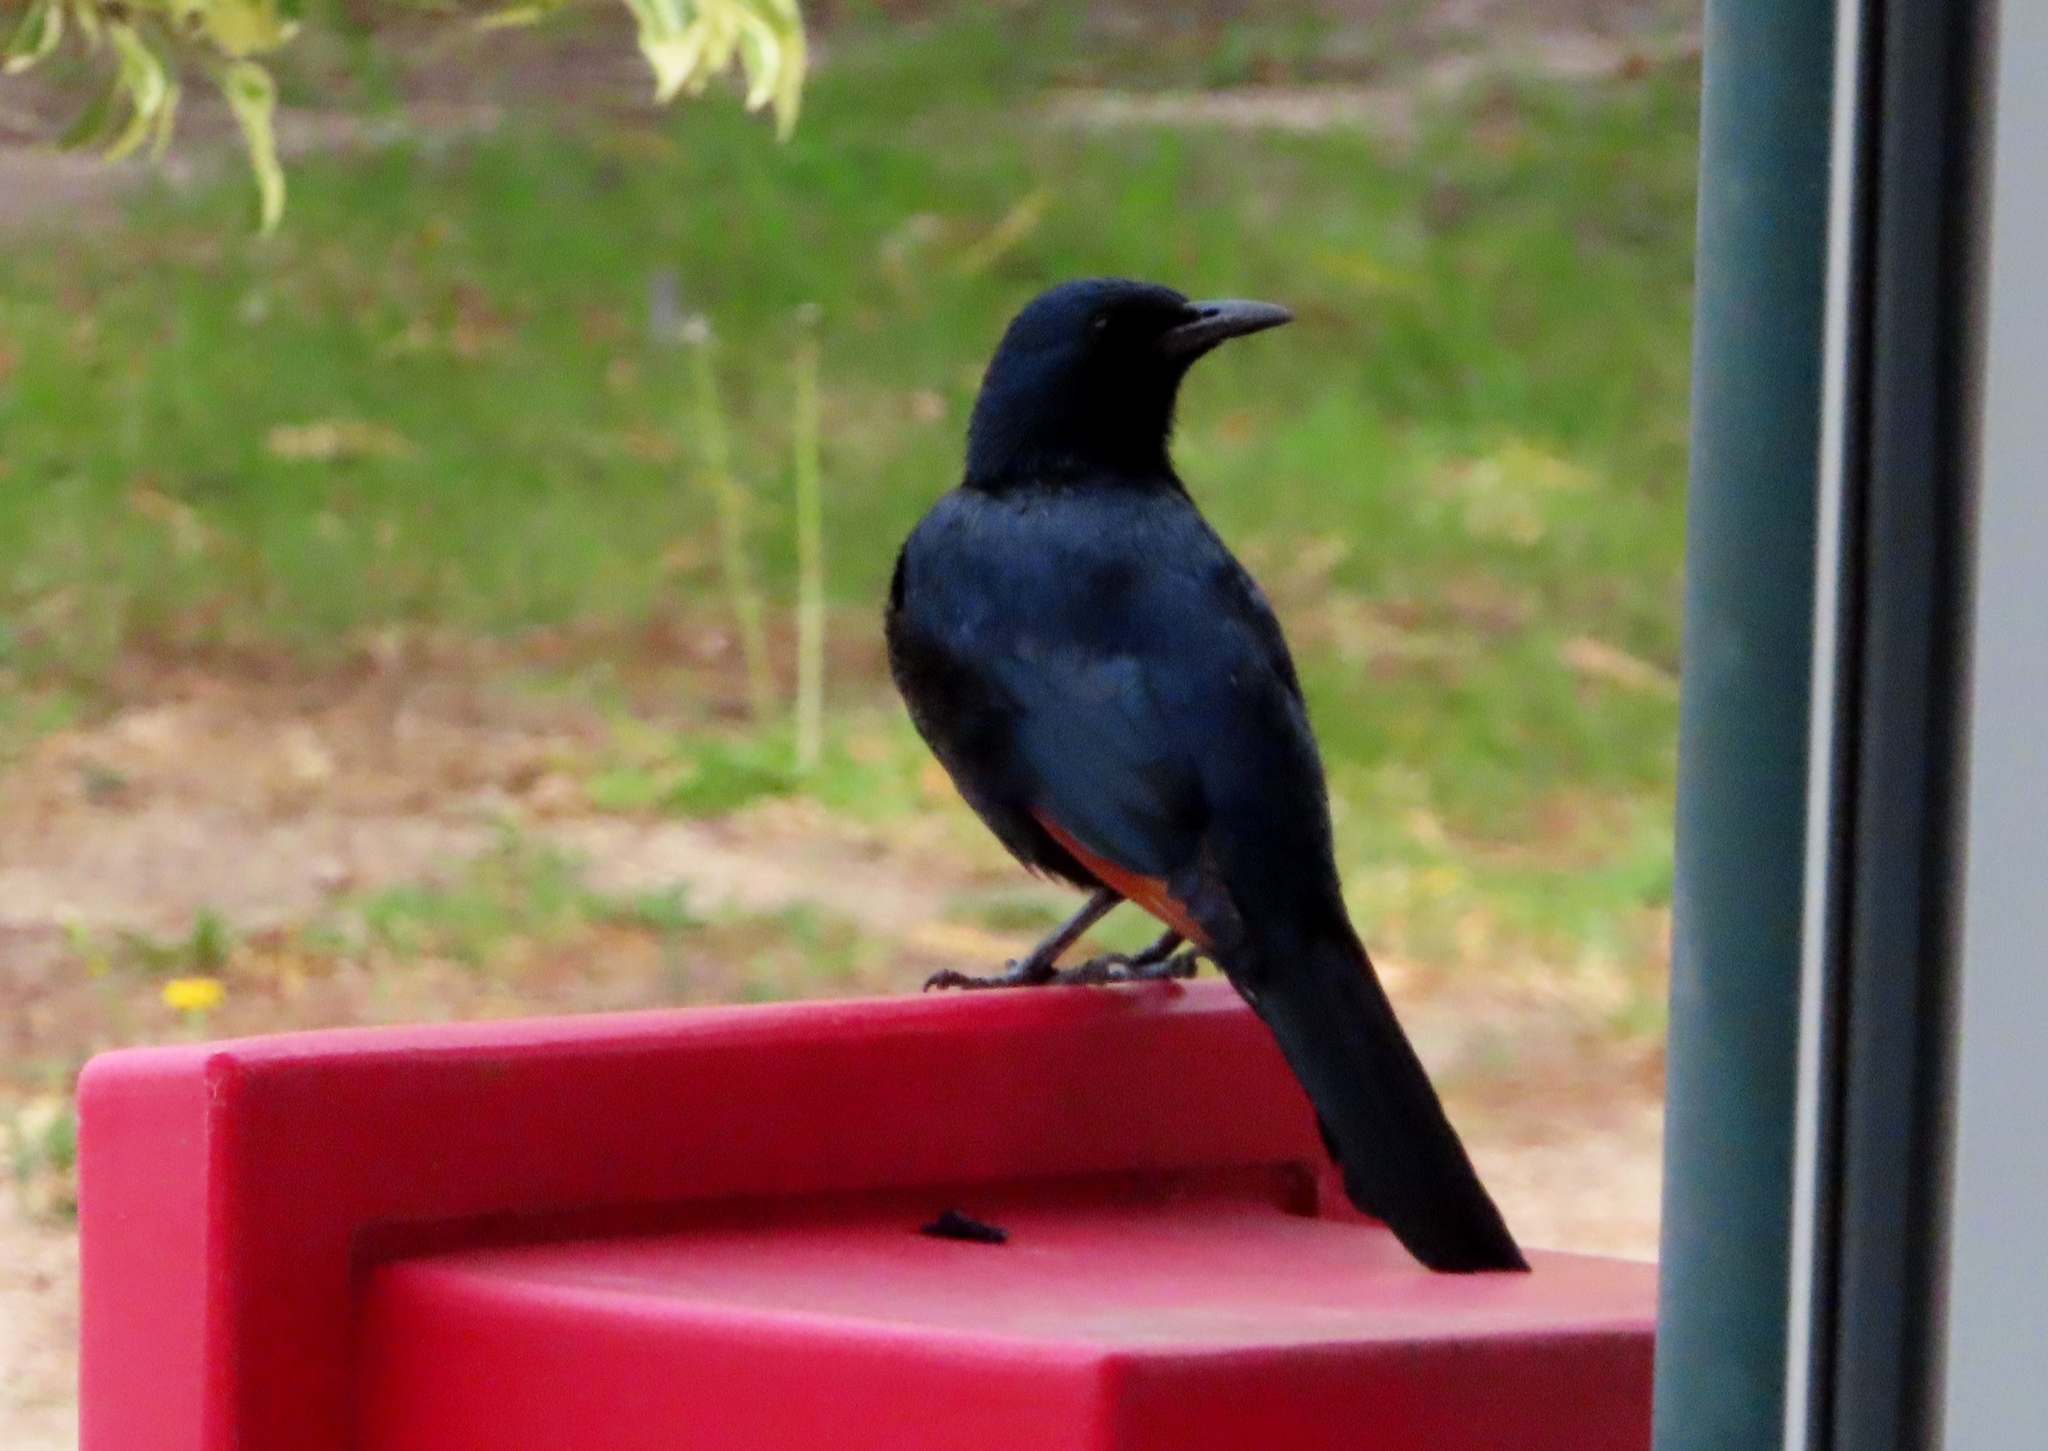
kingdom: Animalia
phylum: Chordata
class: Aves
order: Passeriformes
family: Sturnidae
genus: Onychognathus
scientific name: Onychognathus morio
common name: Red-winged starling
